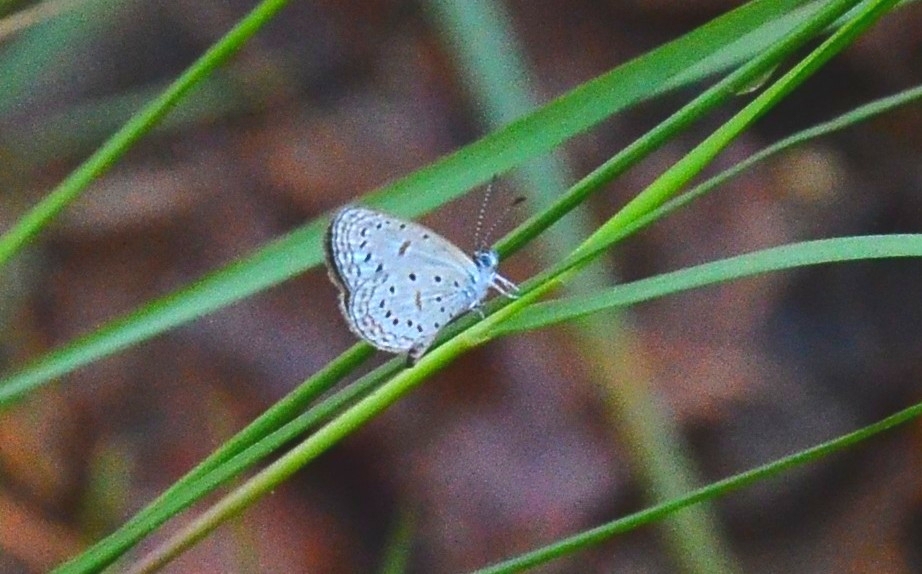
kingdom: Animalia
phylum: Arthropoda
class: Insecta
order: Lepidoptera
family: Lycaenidae
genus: Zizula
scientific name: Zizula hylax
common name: Gaika blue
